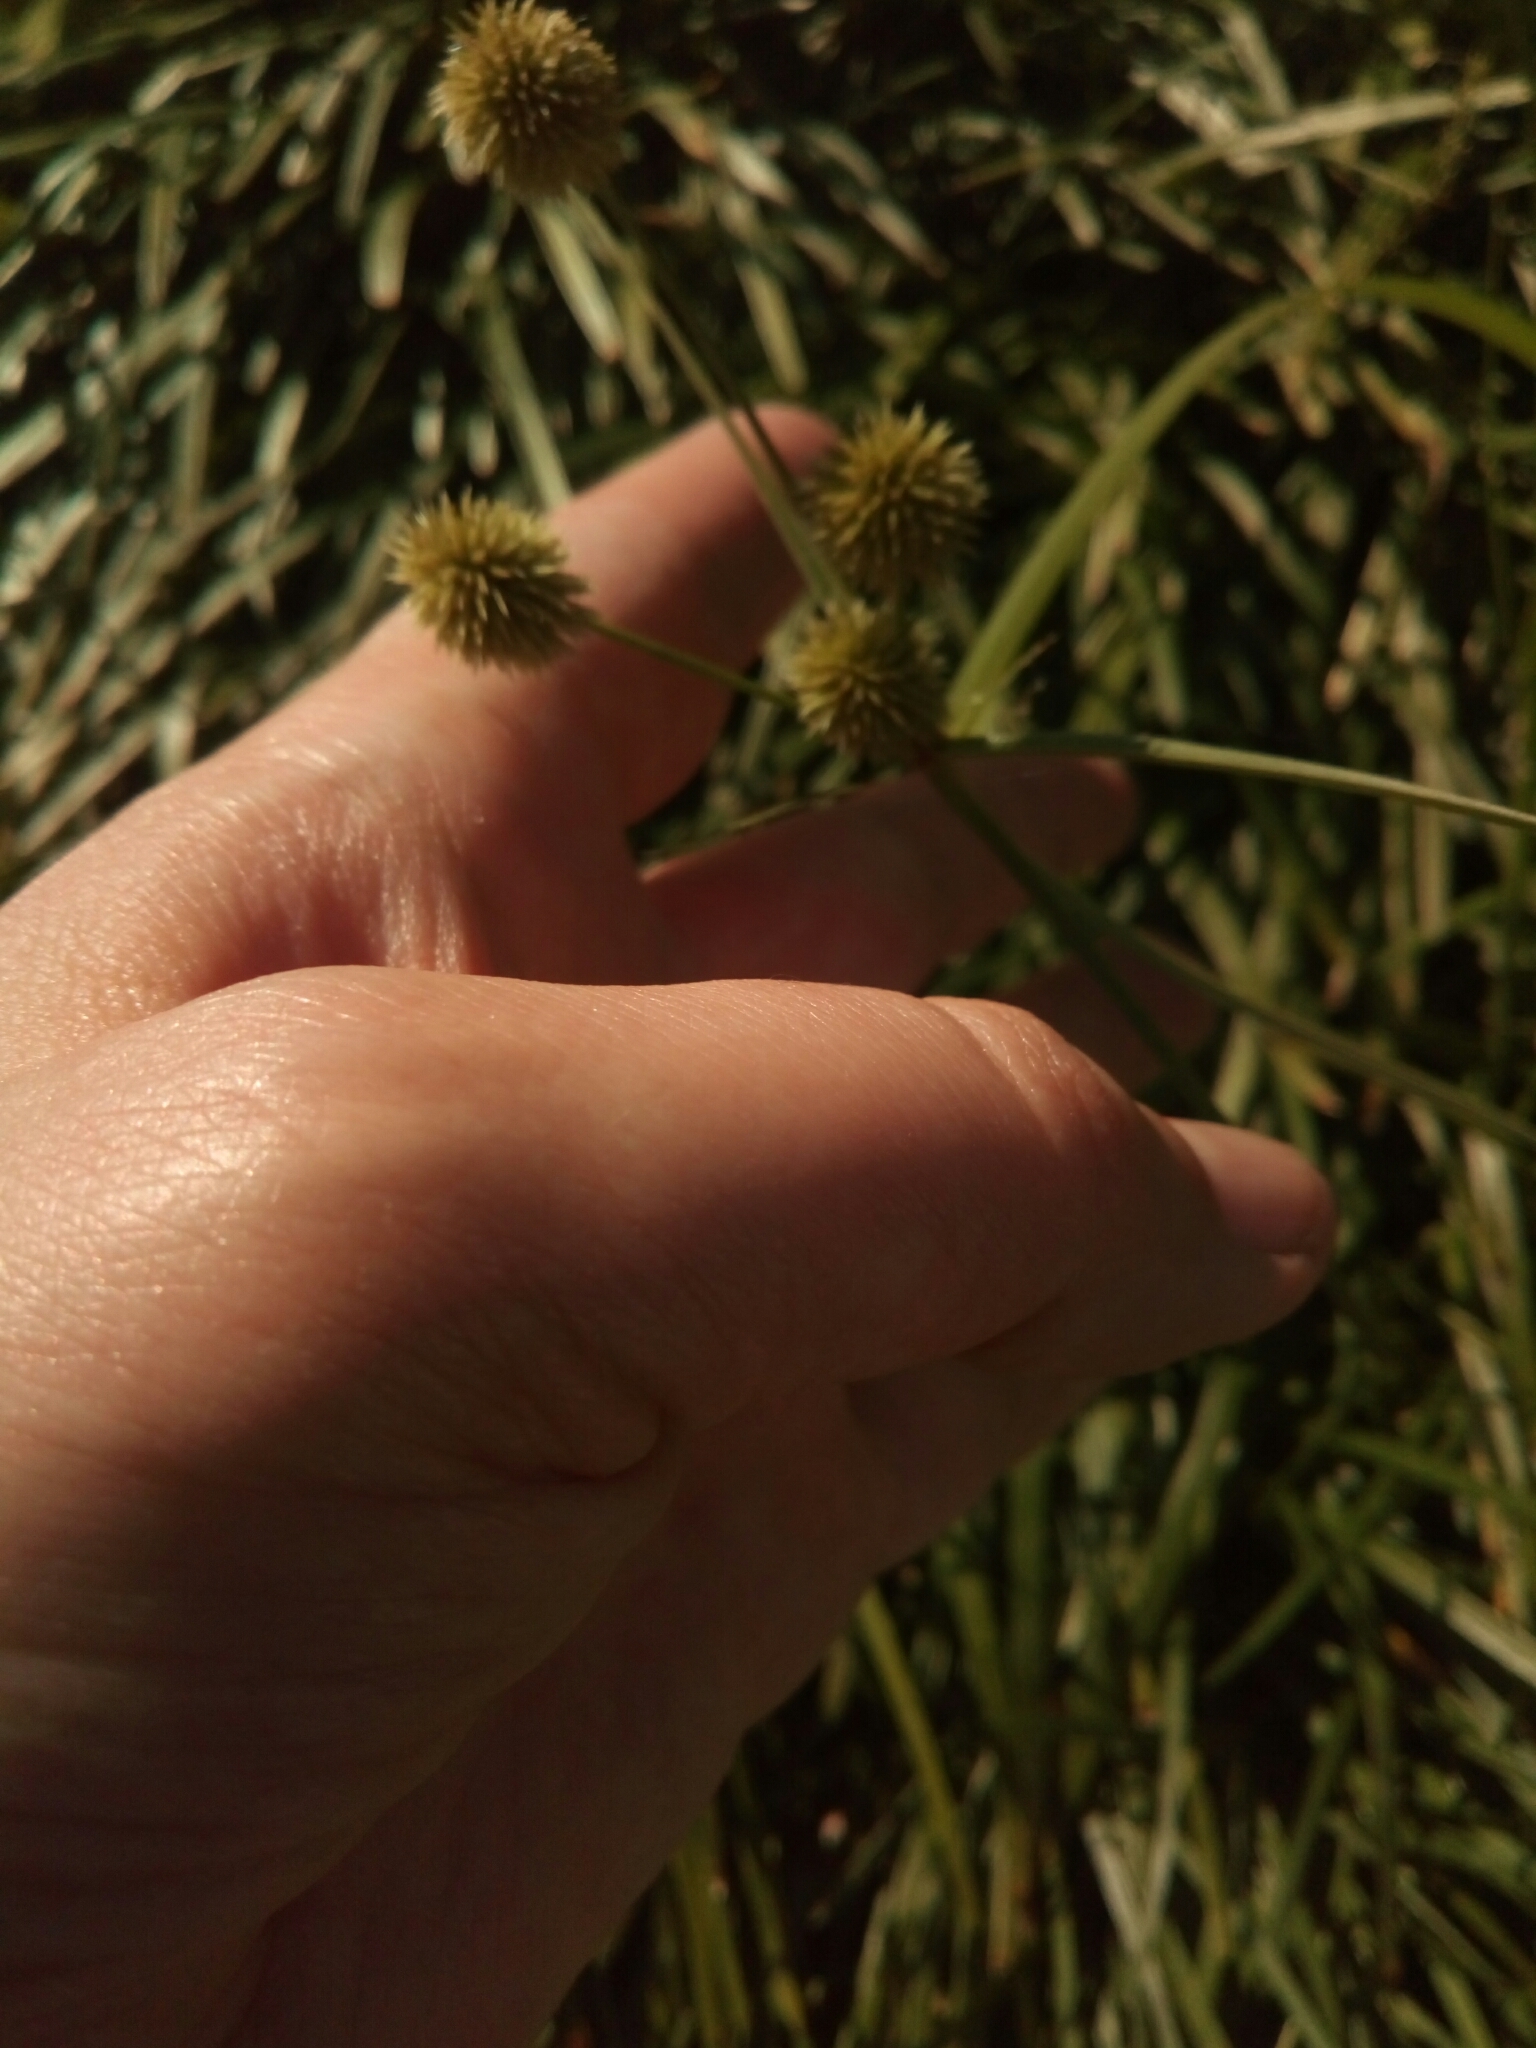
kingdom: Plantae
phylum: Tracheophyta
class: Liliopsida
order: Poales
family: Cyperaceae
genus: Cyperus
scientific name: Cyperus echinatus
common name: Teasel sedge
